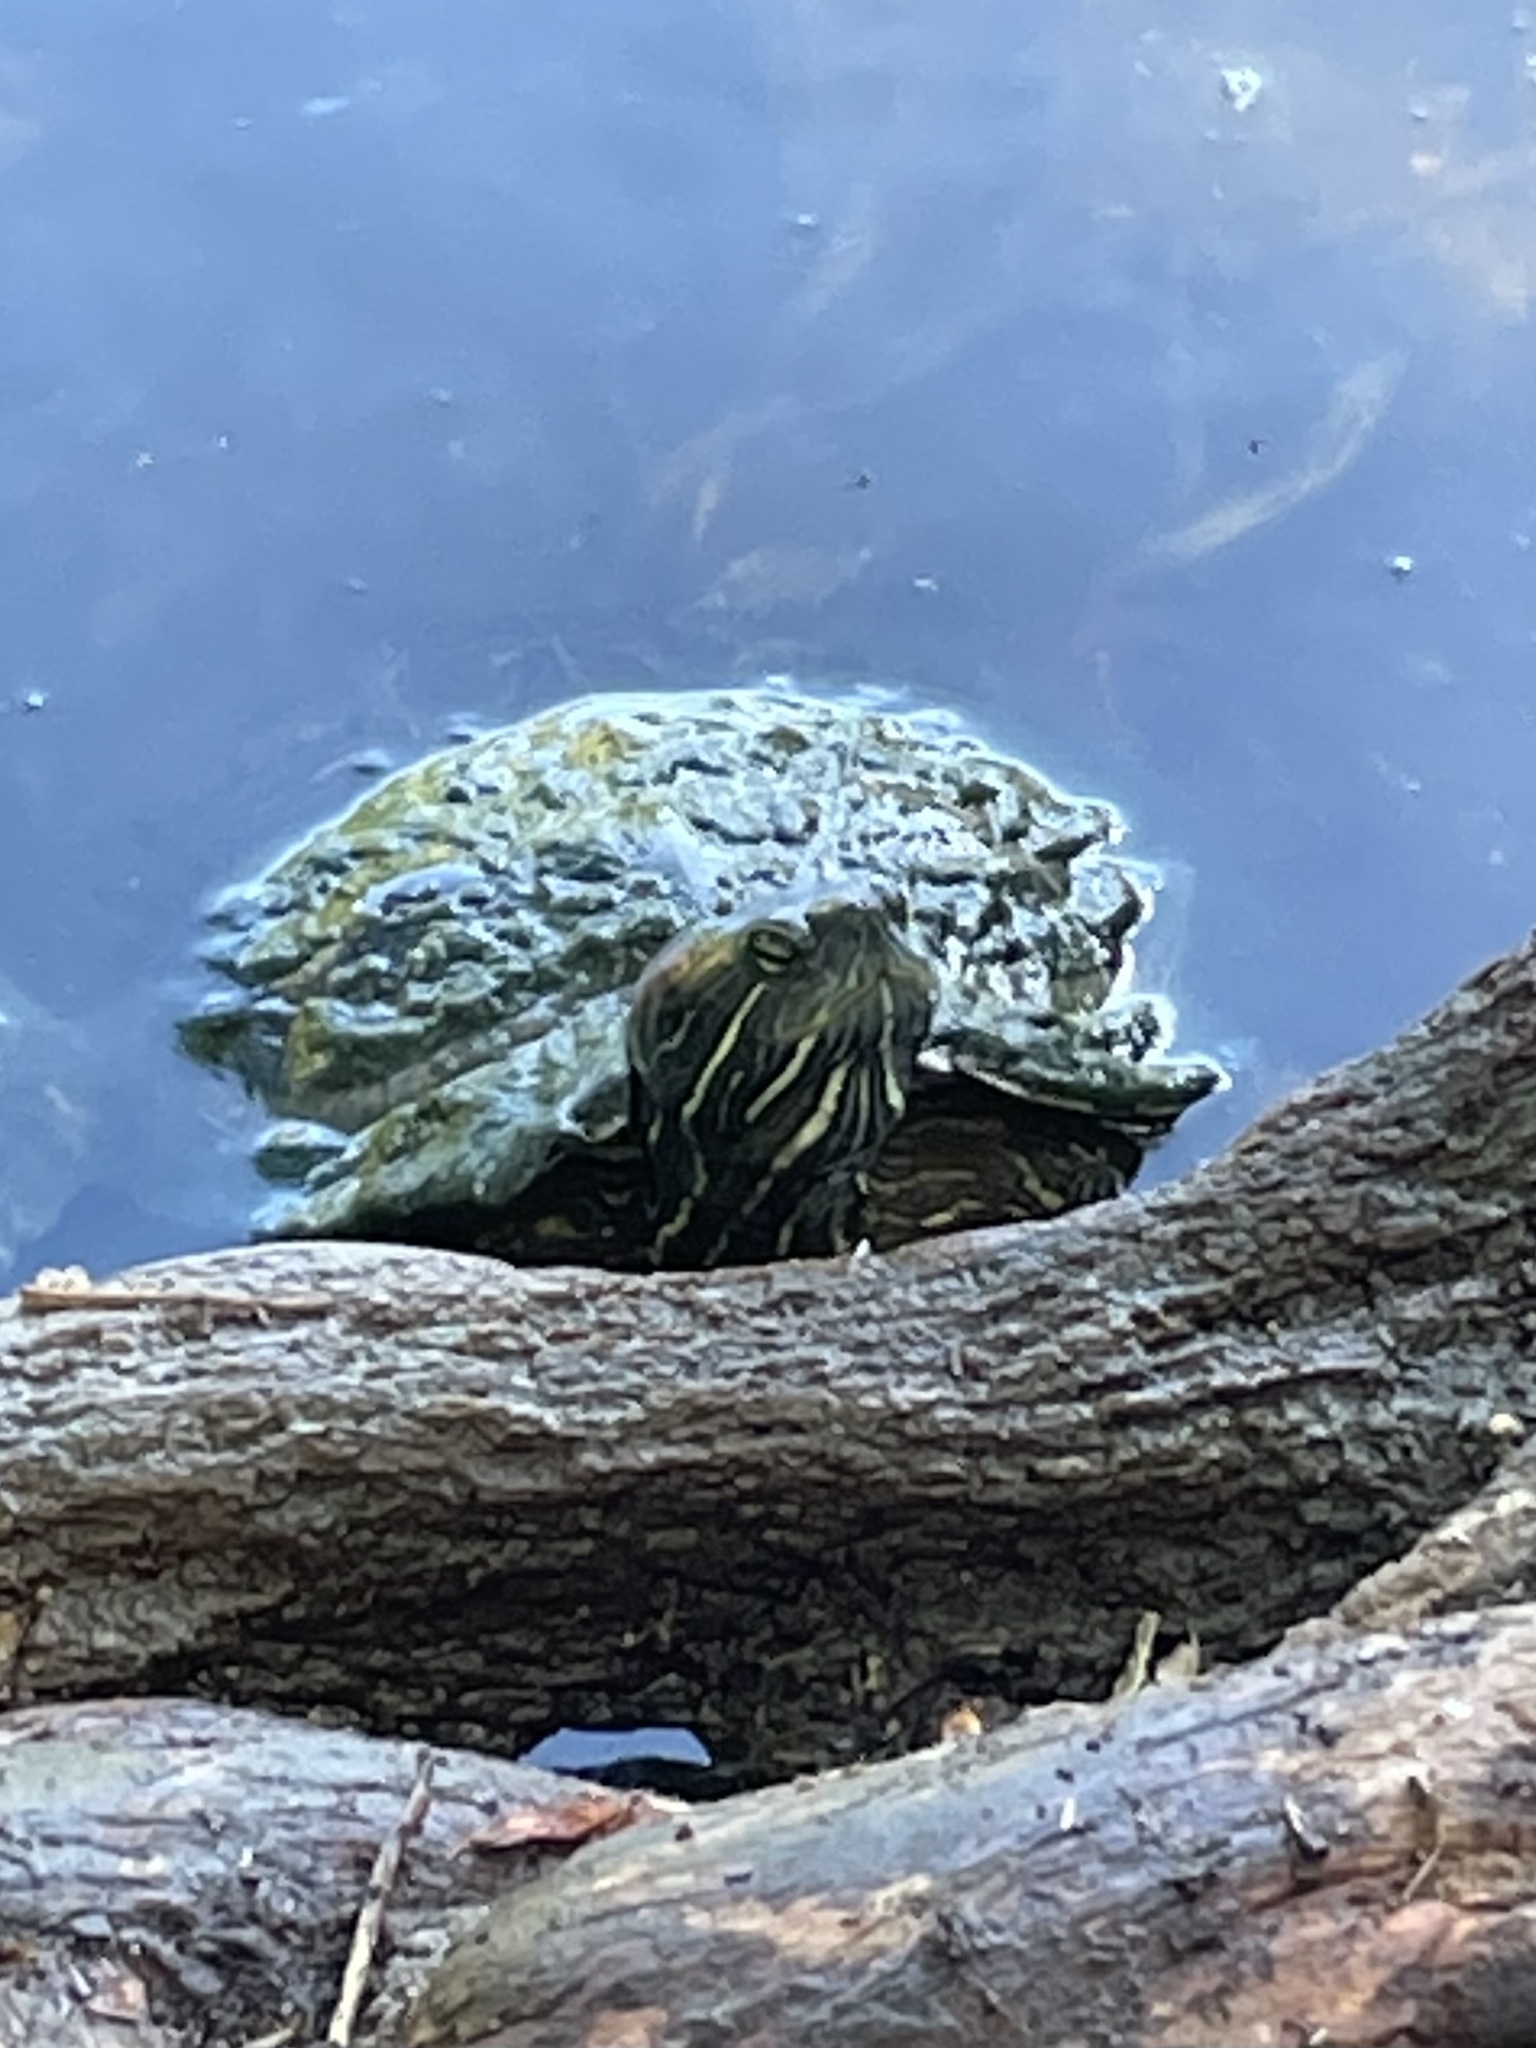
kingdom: Animalia
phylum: Chordata
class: Testudines
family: Emydidae
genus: Trachemys
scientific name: Trachemys scripta
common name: Slider
